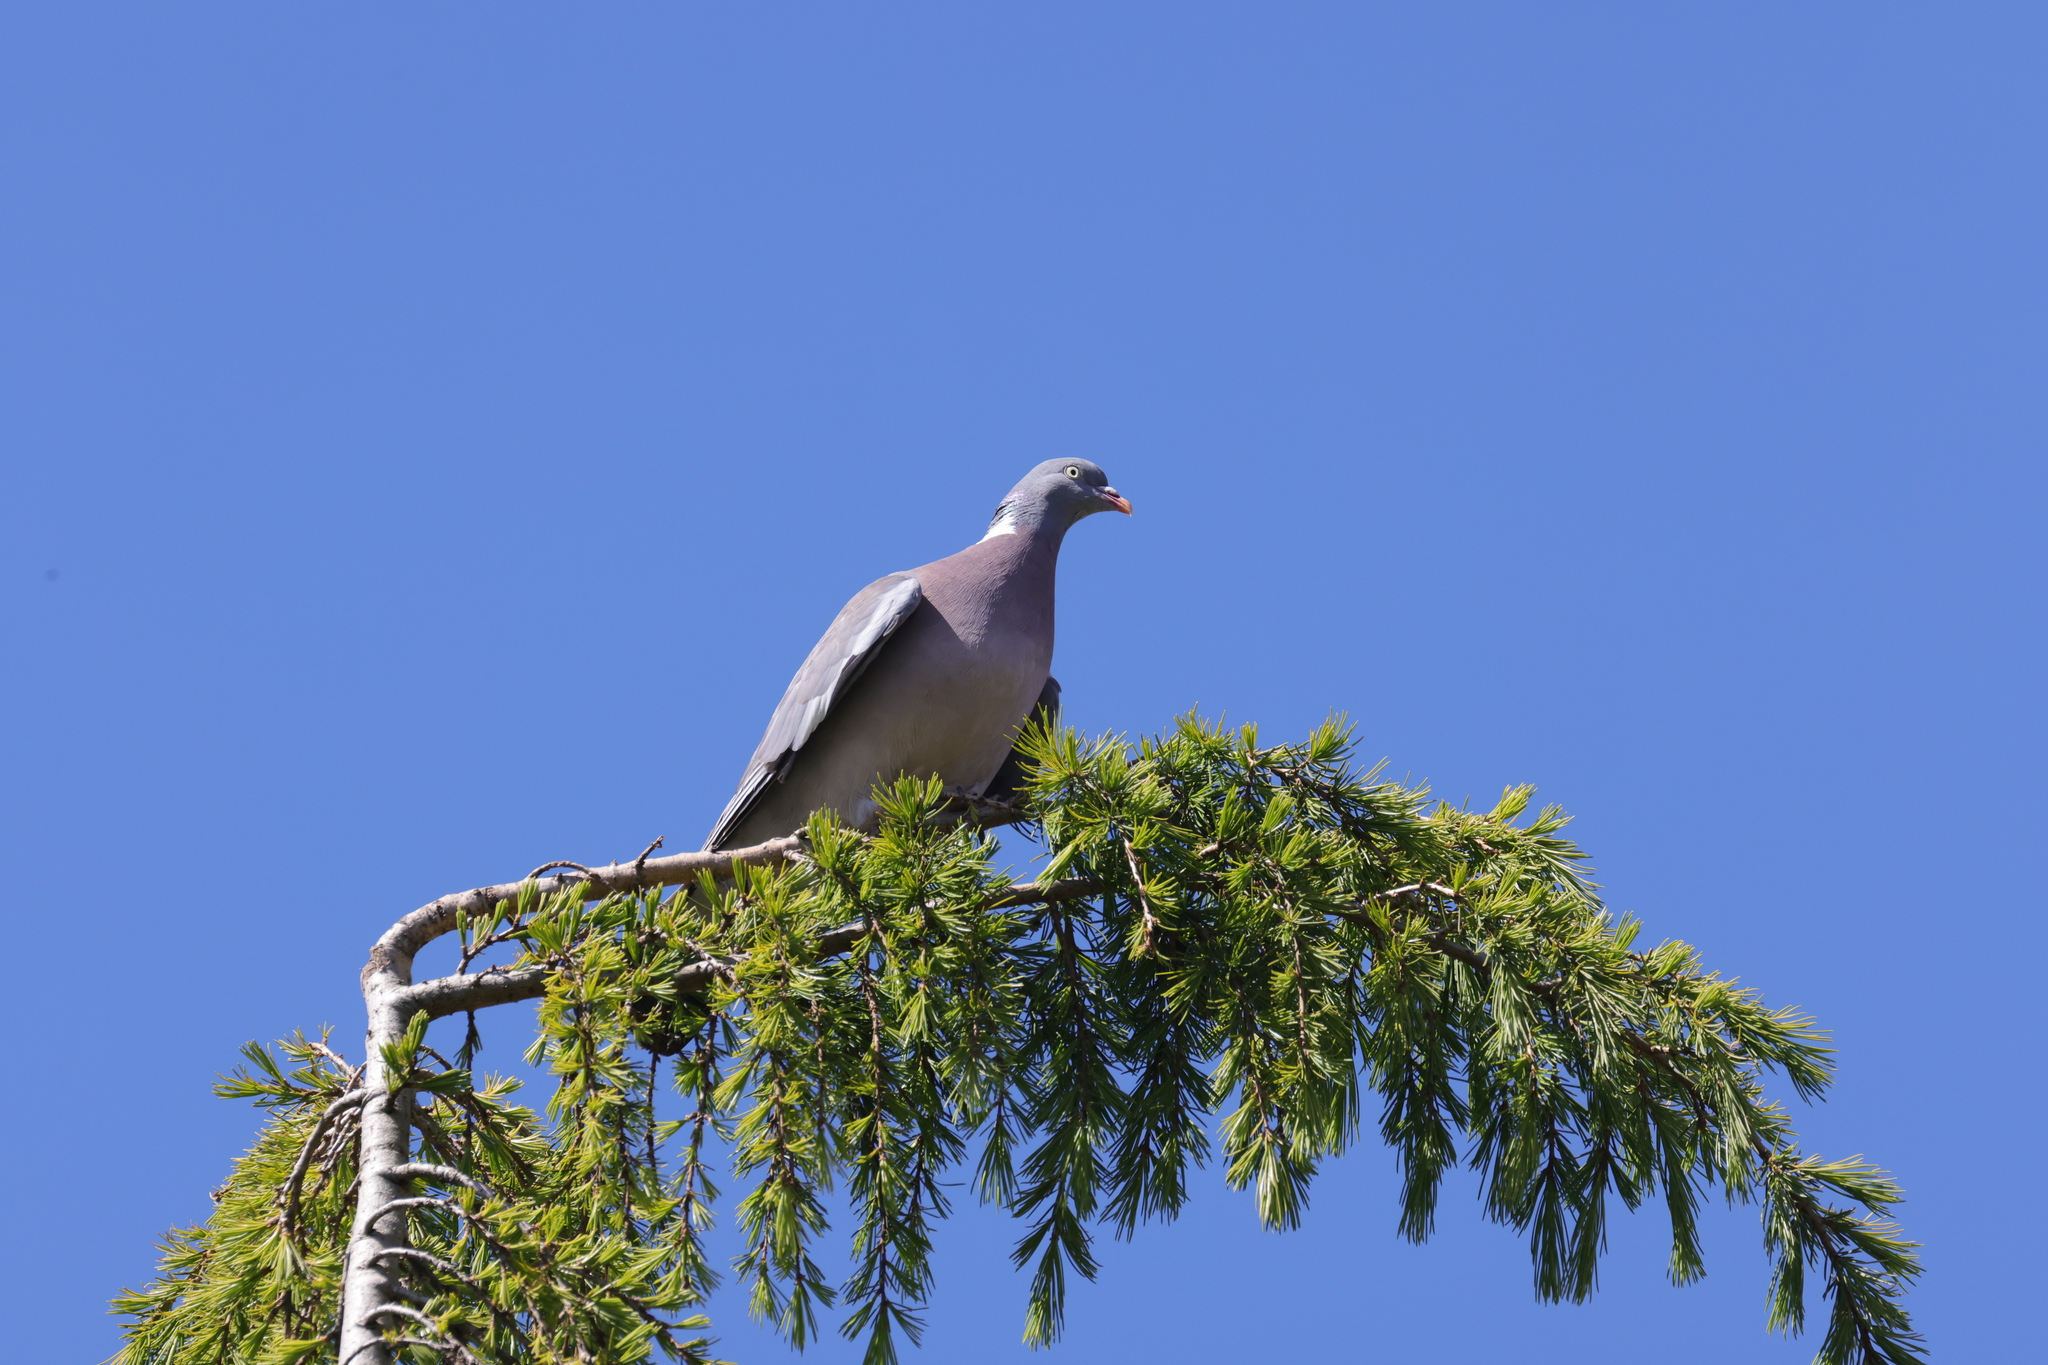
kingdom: Animalia
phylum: Chordata
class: Aves
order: Columbiformes
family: Columbidae
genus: Columba
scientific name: Columba palumbus
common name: Common wood pigeon
